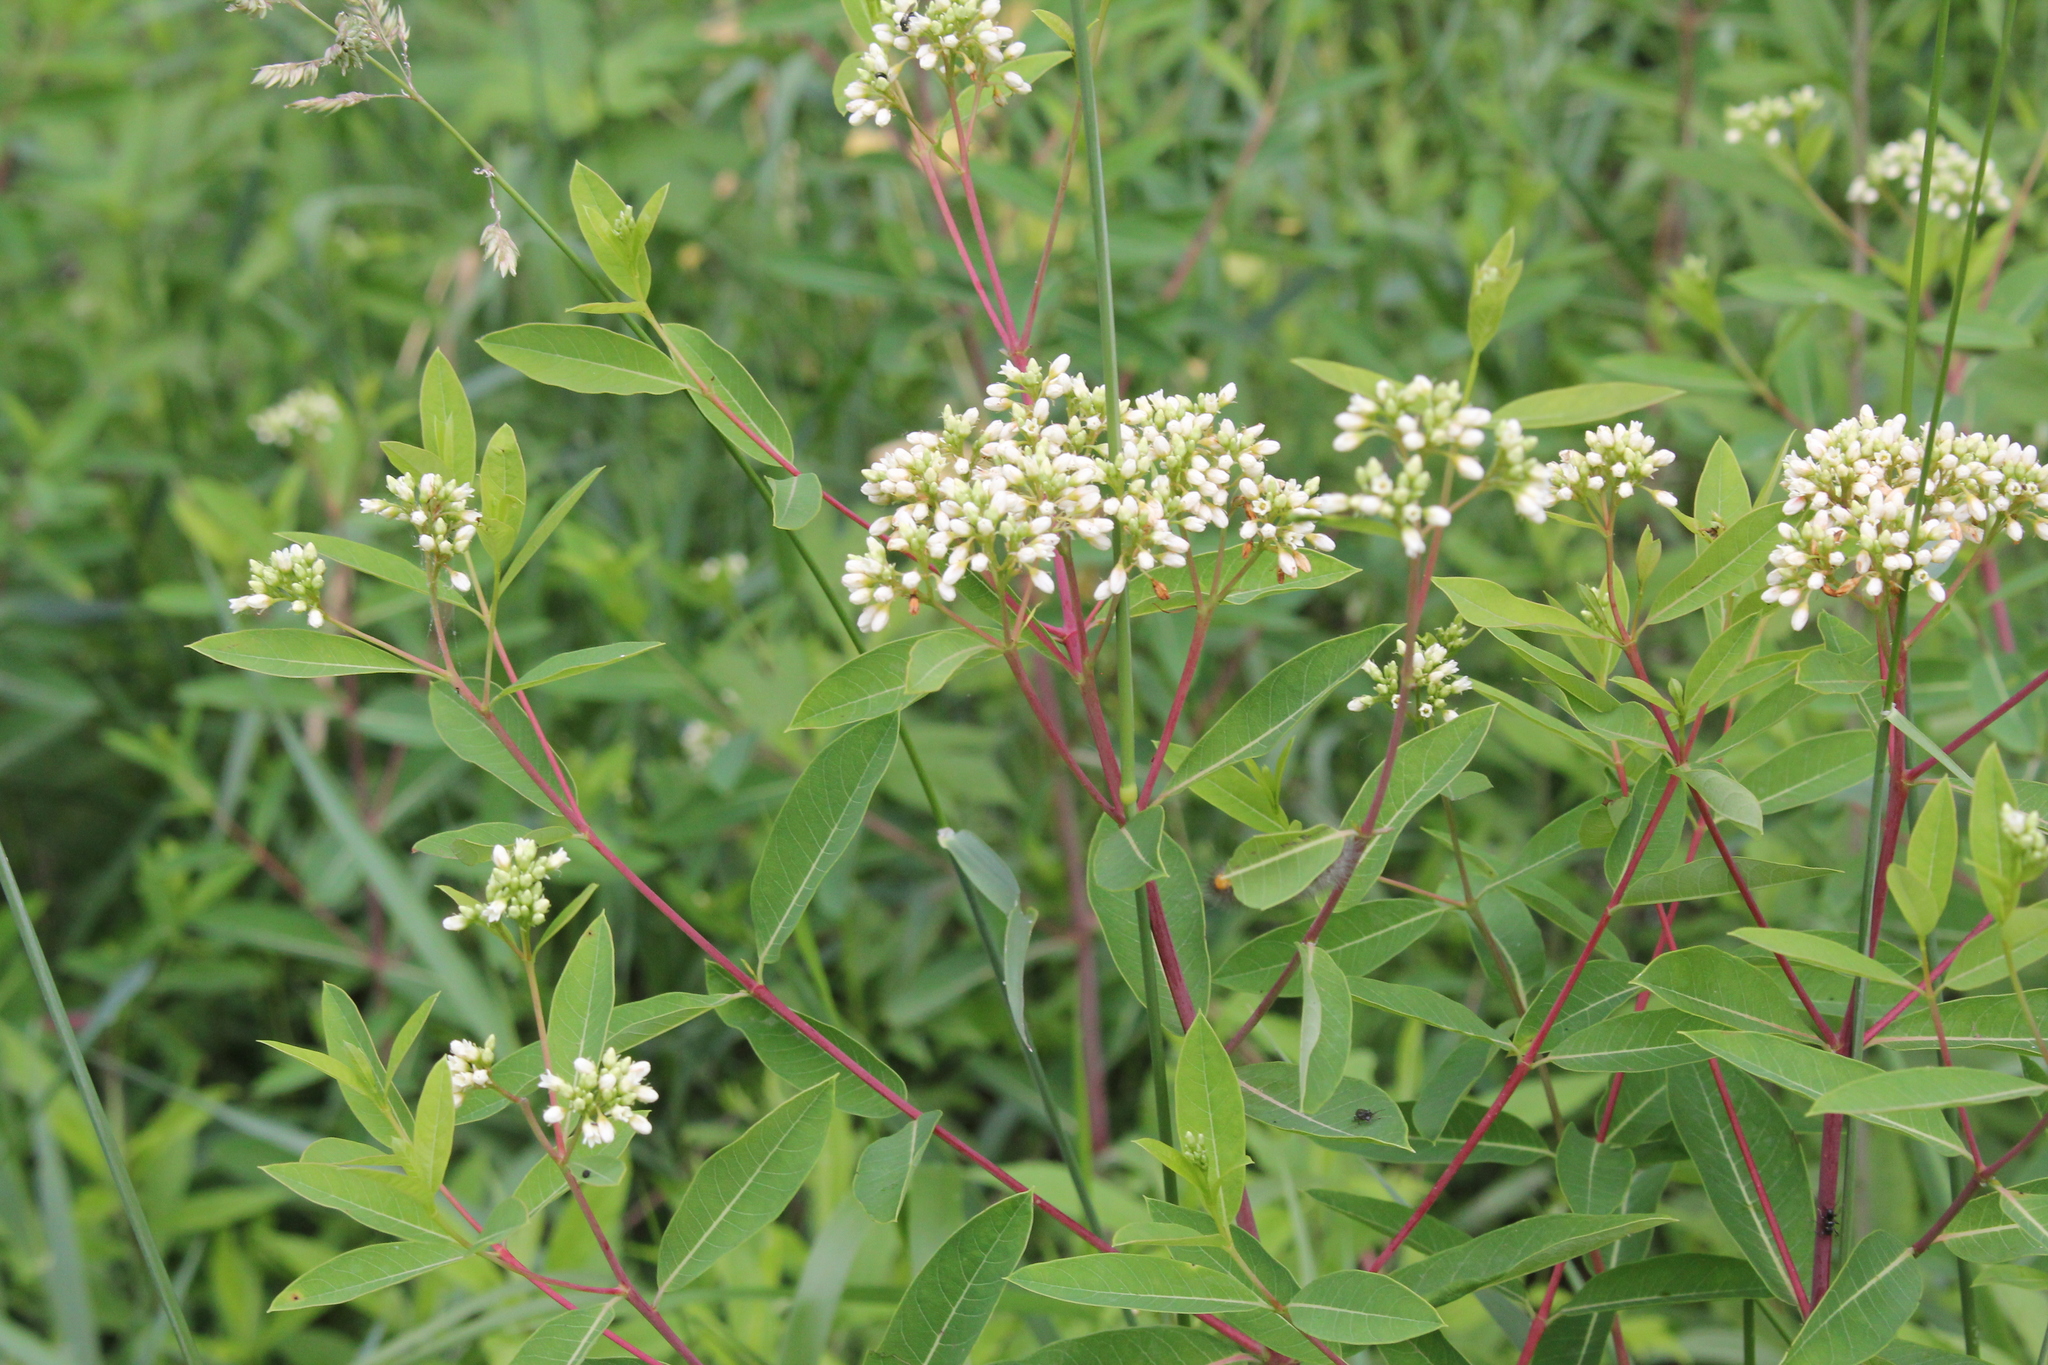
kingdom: Plantae
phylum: Tracheophyta
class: Magnoliopsida
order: Gentianales
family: Apocynaceae
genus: Apocynum
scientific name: Apocynum cannabinum
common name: Hemp dogbane
